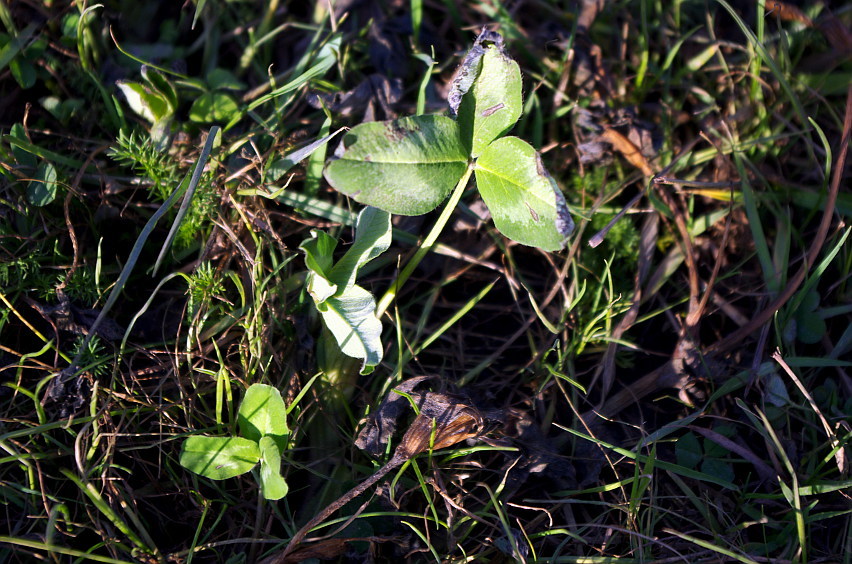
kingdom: Plantae
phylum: Tracheophyta
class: Magnoliopsida
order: Fabales
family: Fabaceae
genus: Trifolium
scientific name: Trifolium pratense
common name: Red clover
